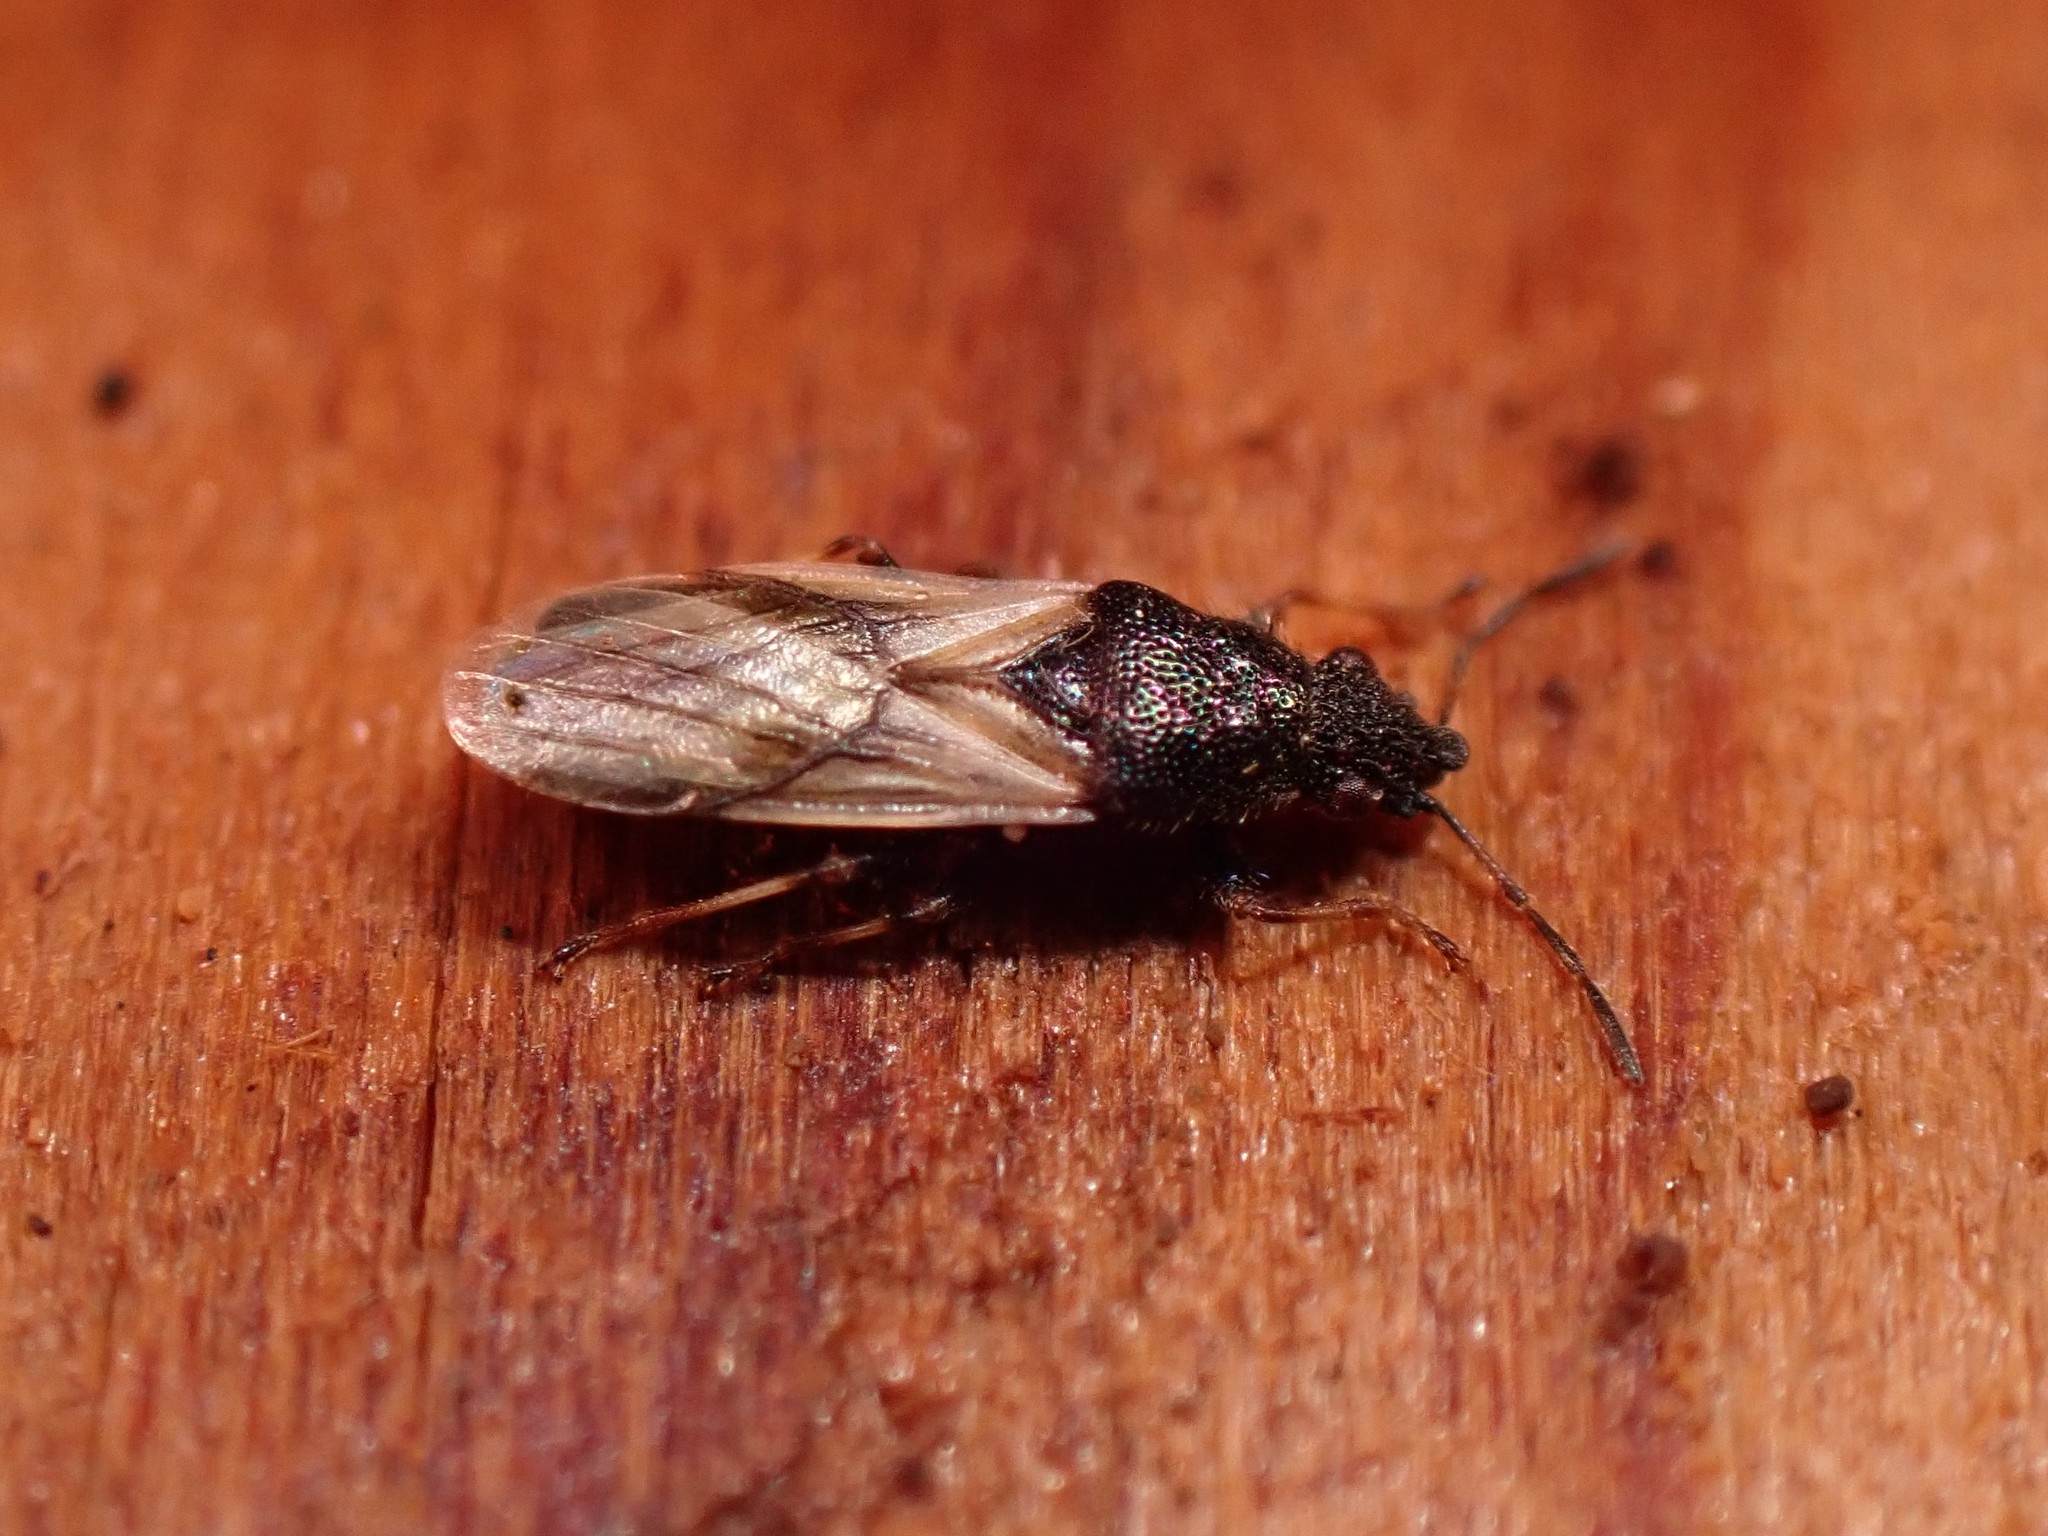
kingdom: Animalia
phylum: Arthropoda
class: Insecta
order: Hemiptera
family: Oxycarenidae
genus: Metopoplax
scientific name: Metopoplax ditomoides
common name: Seed bug
